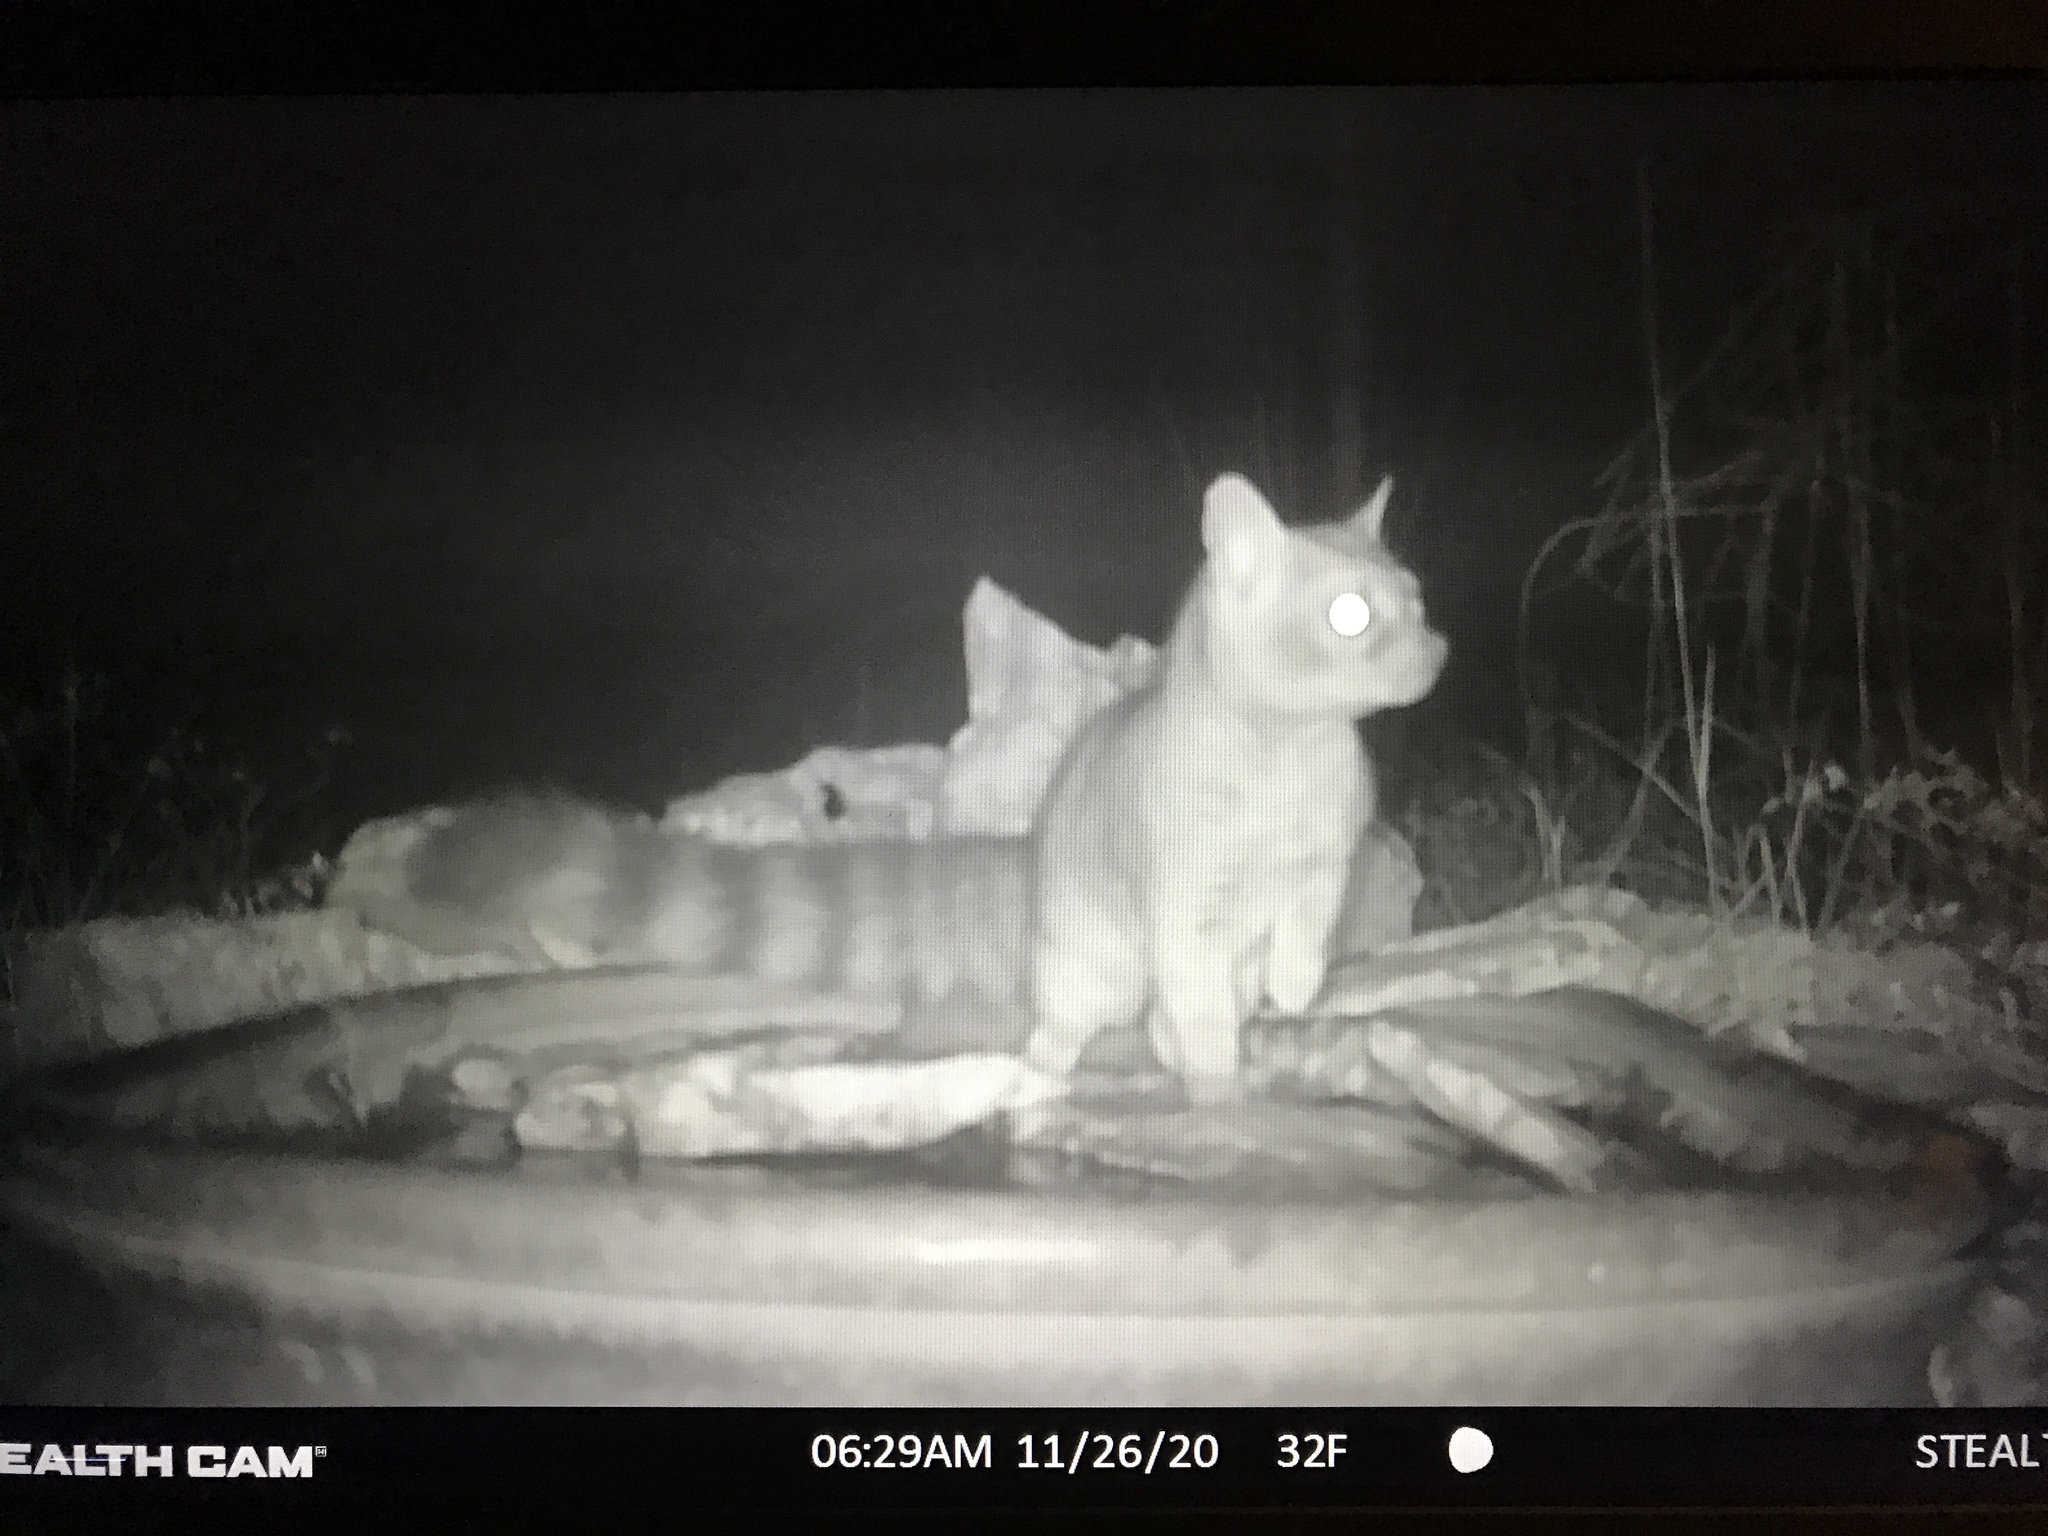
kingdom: Animalia
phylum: Chordata
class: Mammalia
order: Carnivora
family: Procyonidae
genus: Bassariscus
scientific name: Bassariscus astutus
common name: Ringtail
